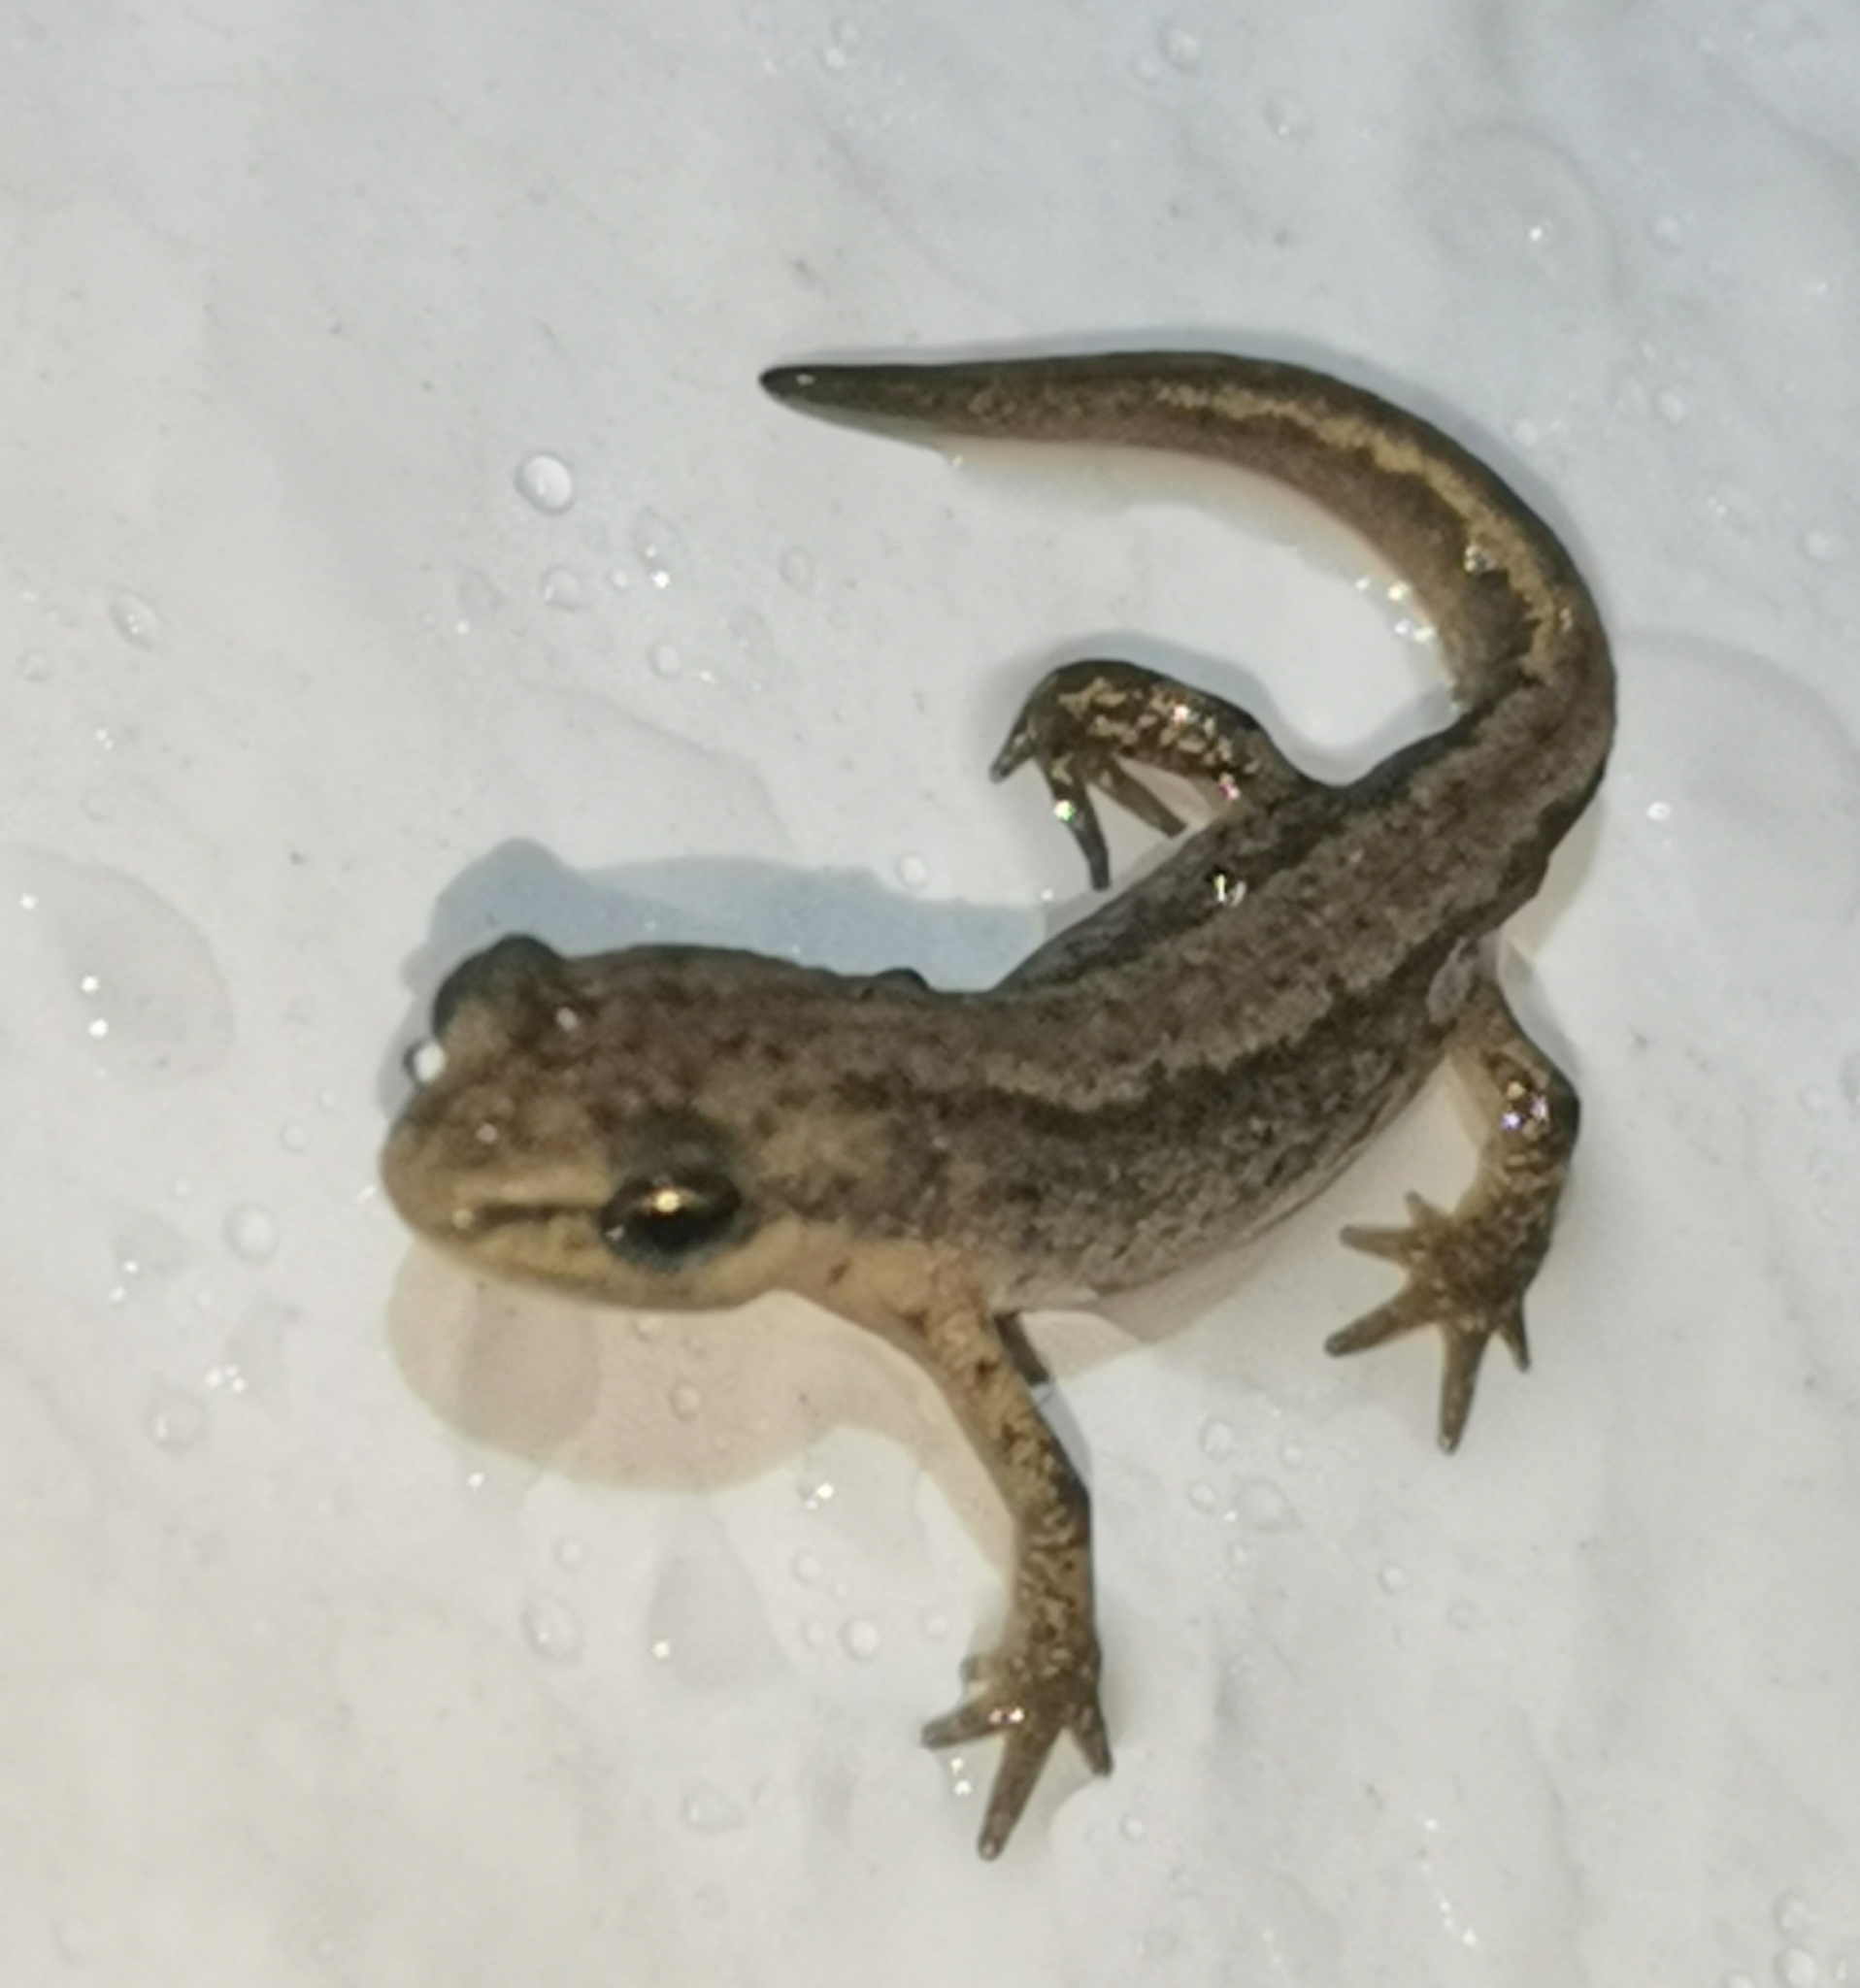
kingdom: Animalia
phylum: Chordata
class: Amphibia
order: Caudata
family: Salamandridae
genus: Lissotriton
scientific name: Lissotriton vulgaris
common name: Smooth newt
